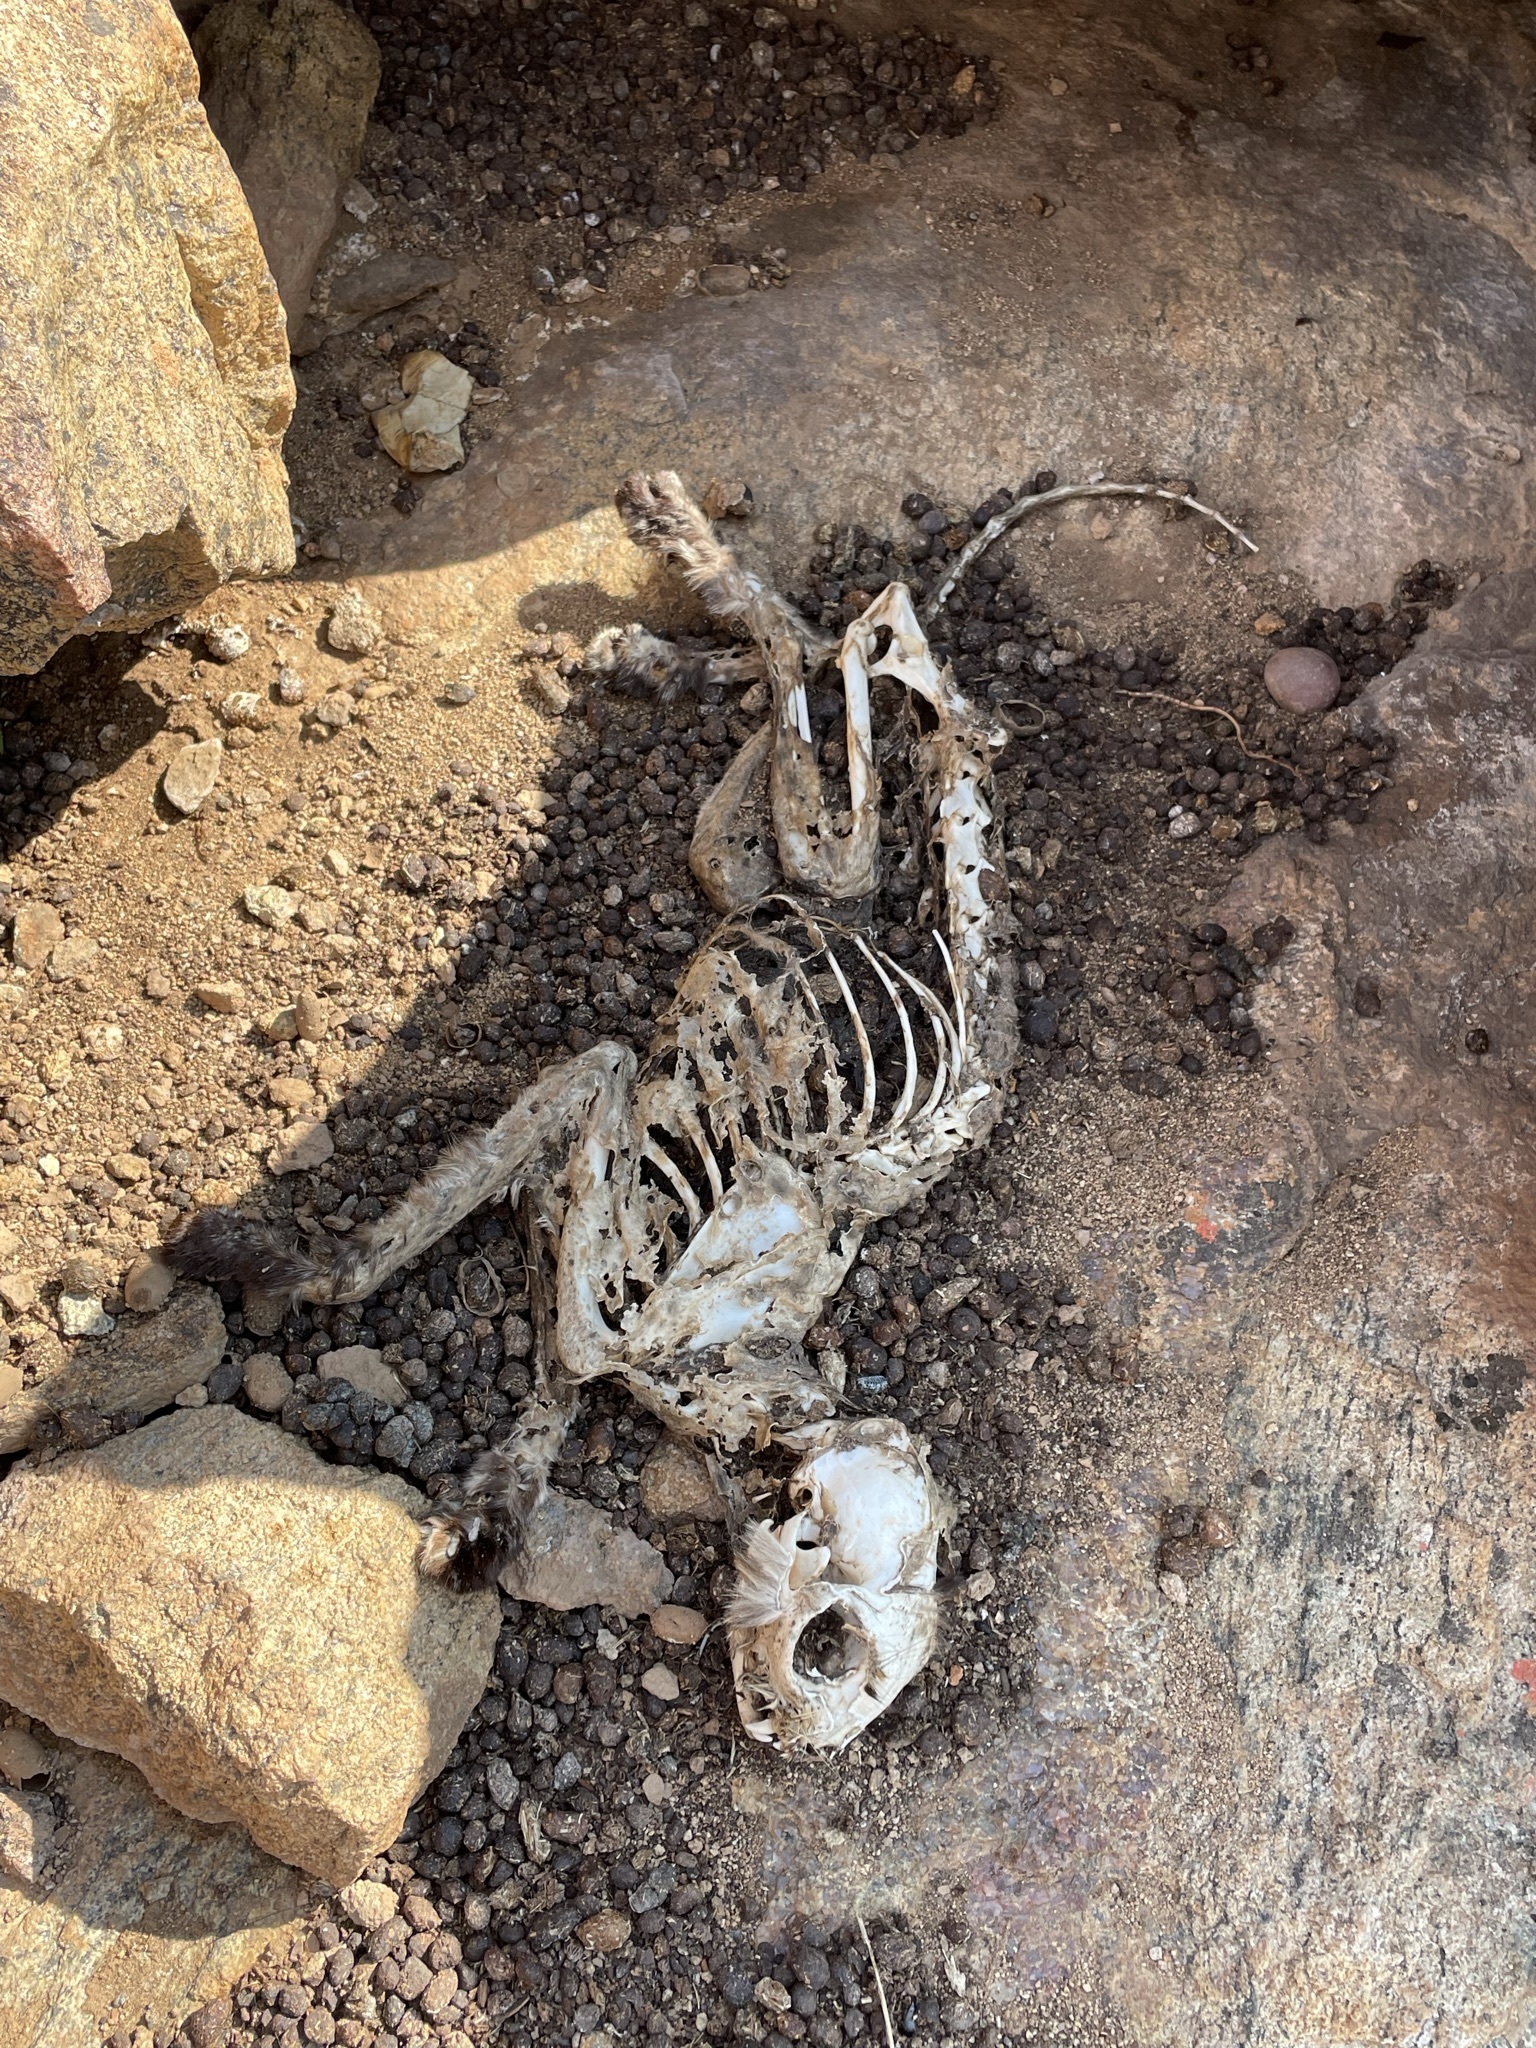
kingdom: Animalia
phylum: Chordata
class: Mammalia
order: Carnivora
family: Felidae
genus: Felis
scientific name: Felis catus
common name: Domestic cat
